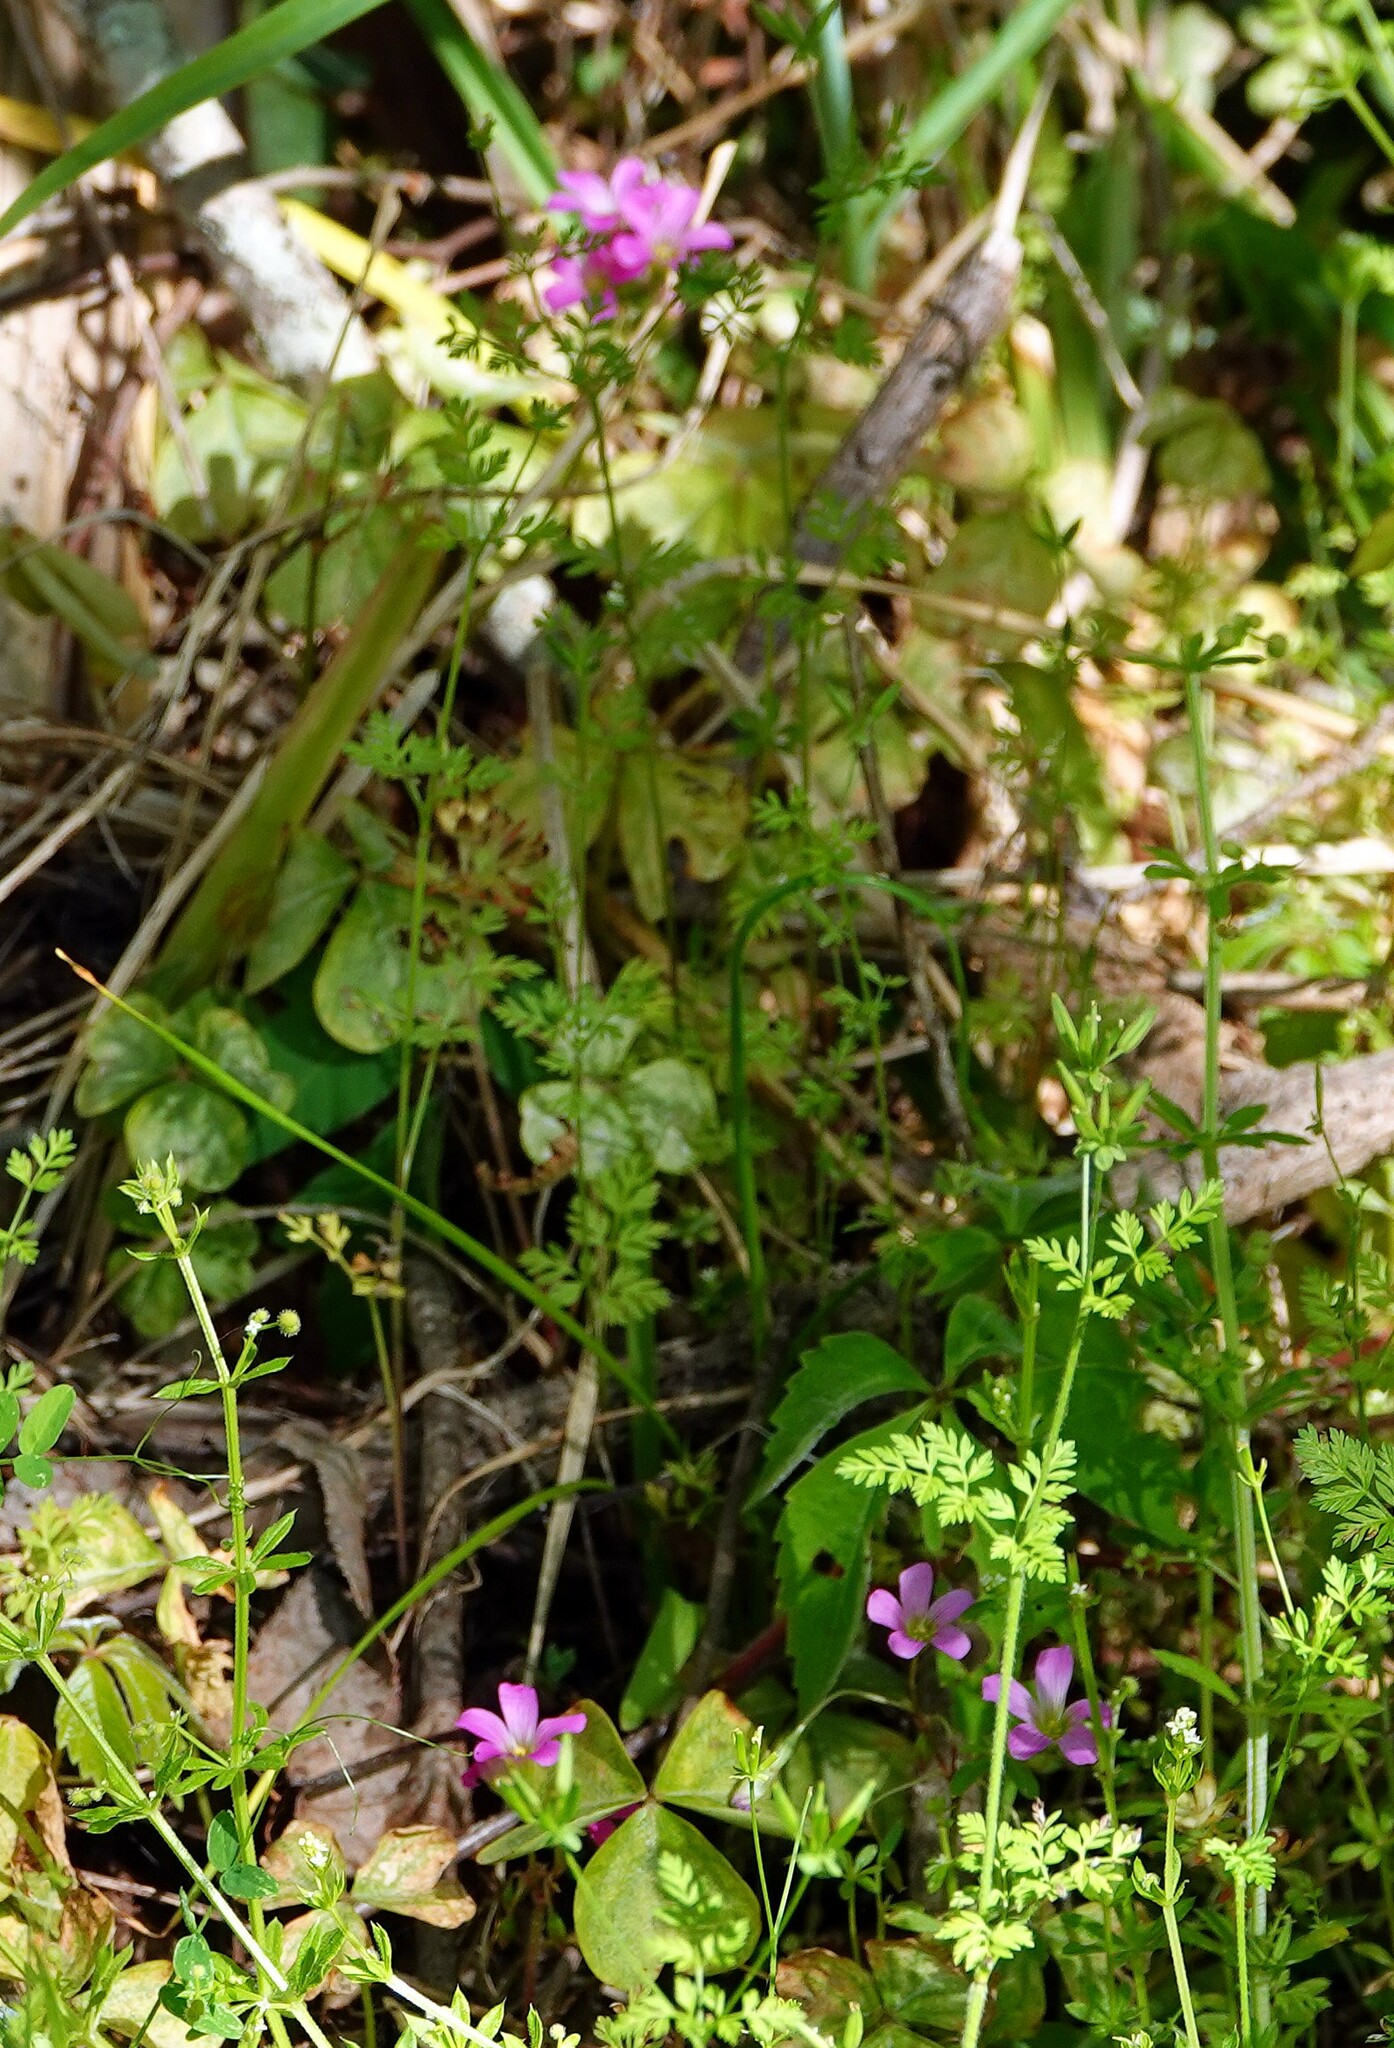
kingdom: Plantae
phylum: Tracheophyta
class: Magnoliopsida
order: Oxalidales
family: Oxalidaceae
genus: Oxalis
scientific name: Oxalis debilis
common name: Large-flowered pink-sorrel
